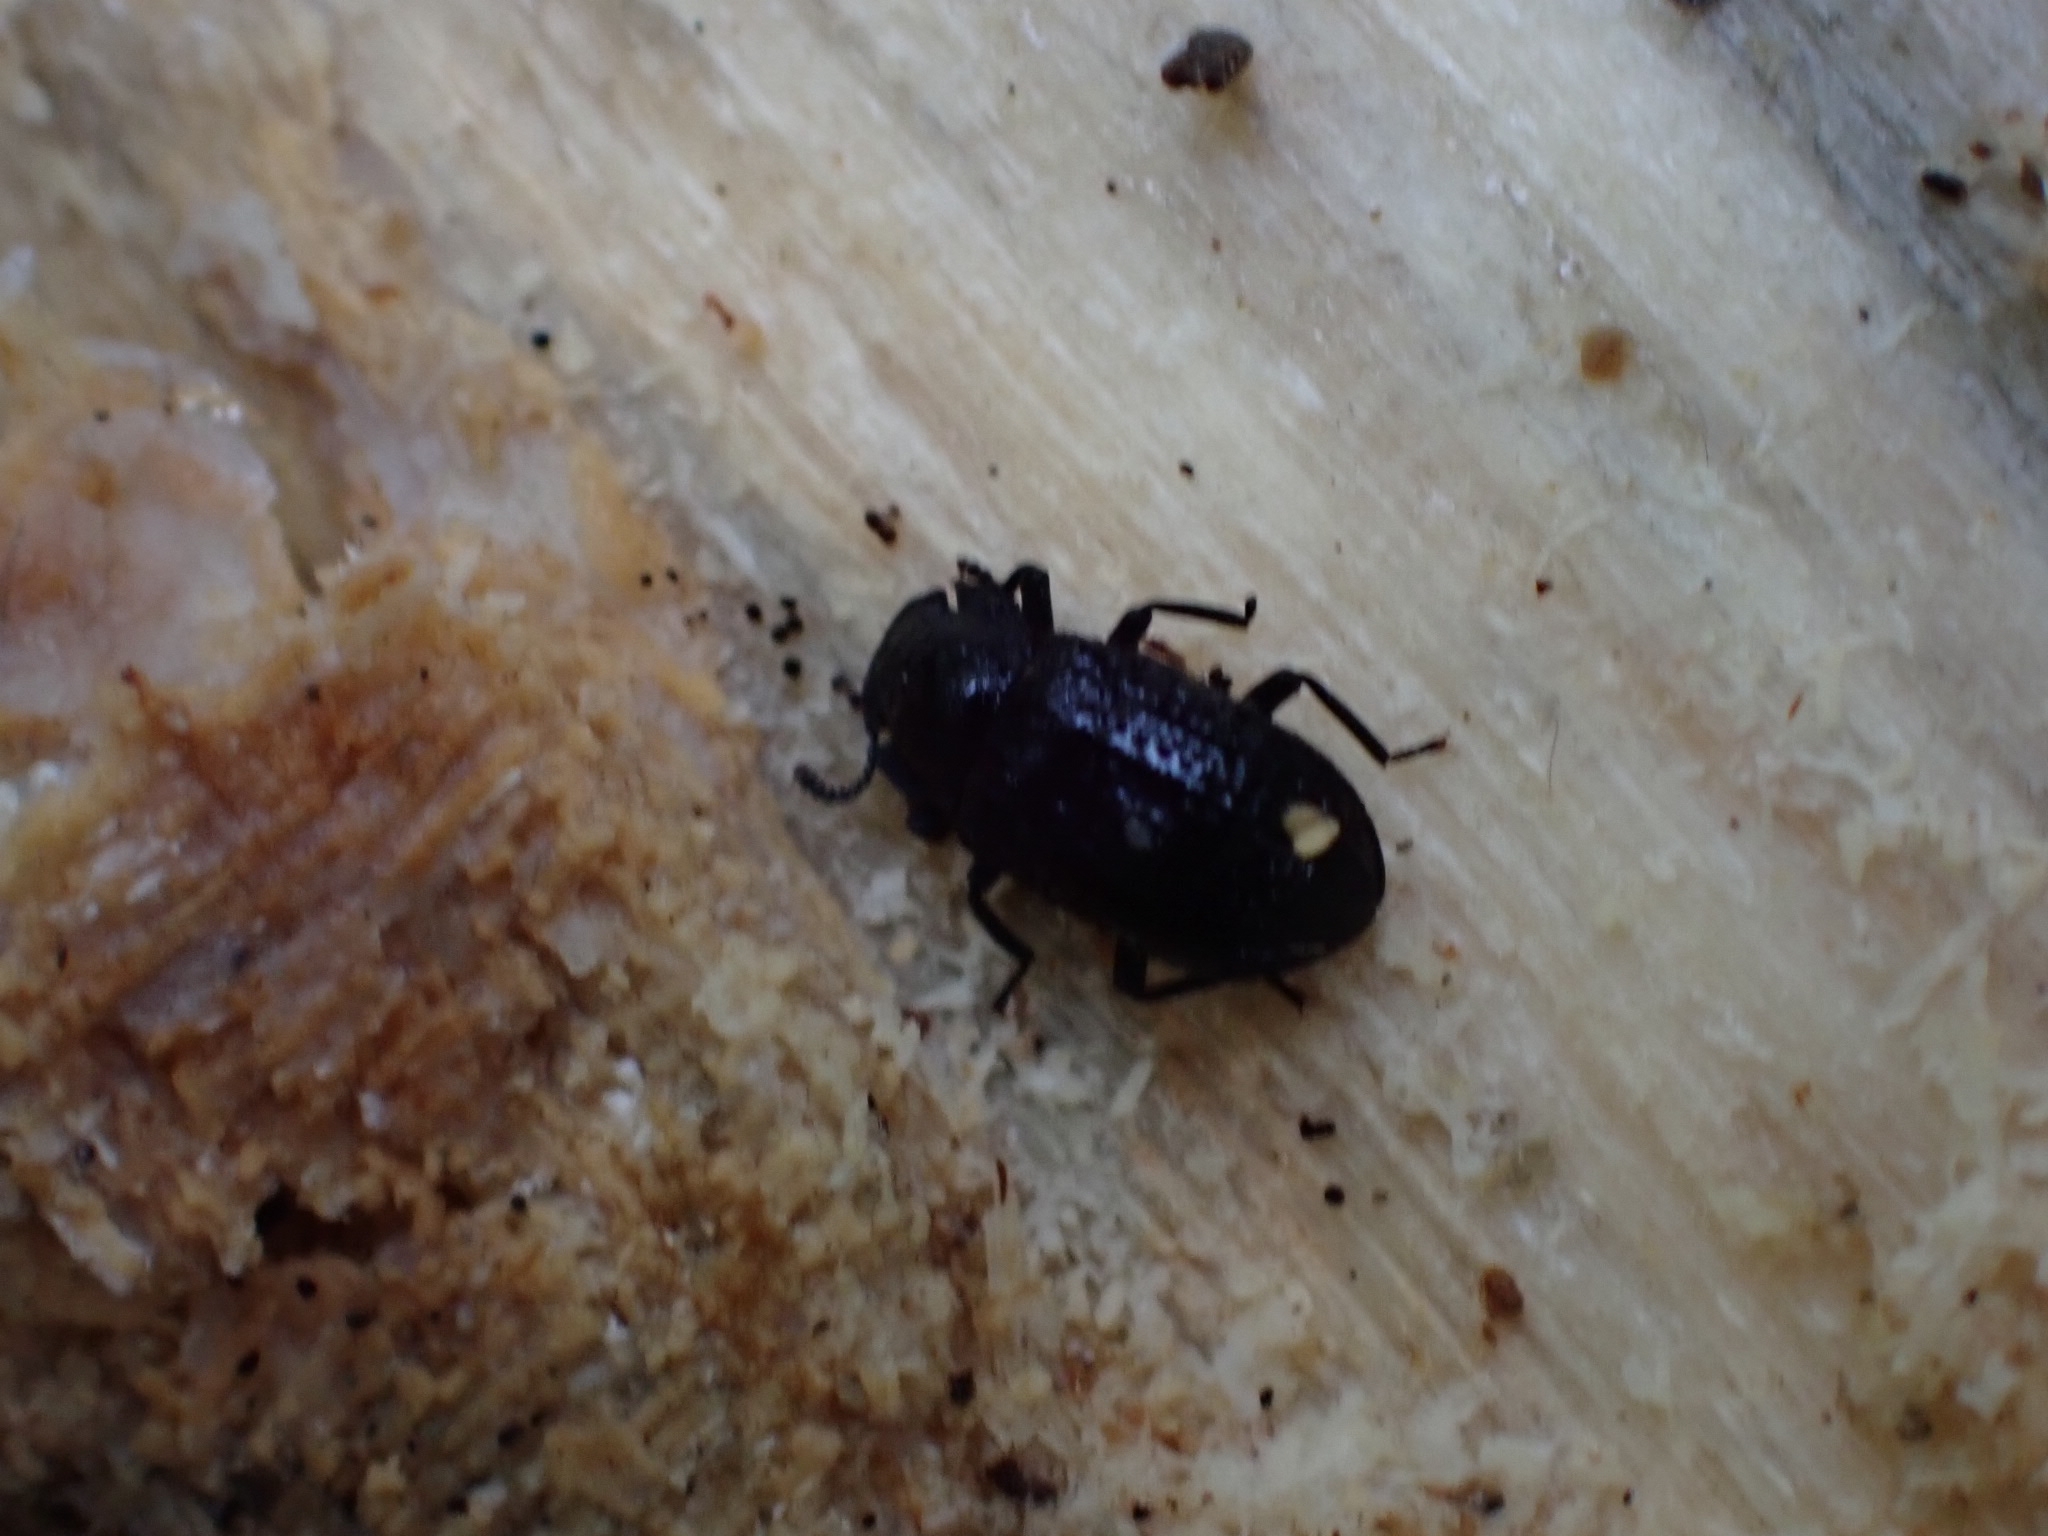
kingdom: Animalia
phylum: Arthropoda
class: Insecta
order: Coleoptera
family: Tenebrionidae
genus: Bolitophagus
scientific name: Bolitophagus reticulatus
